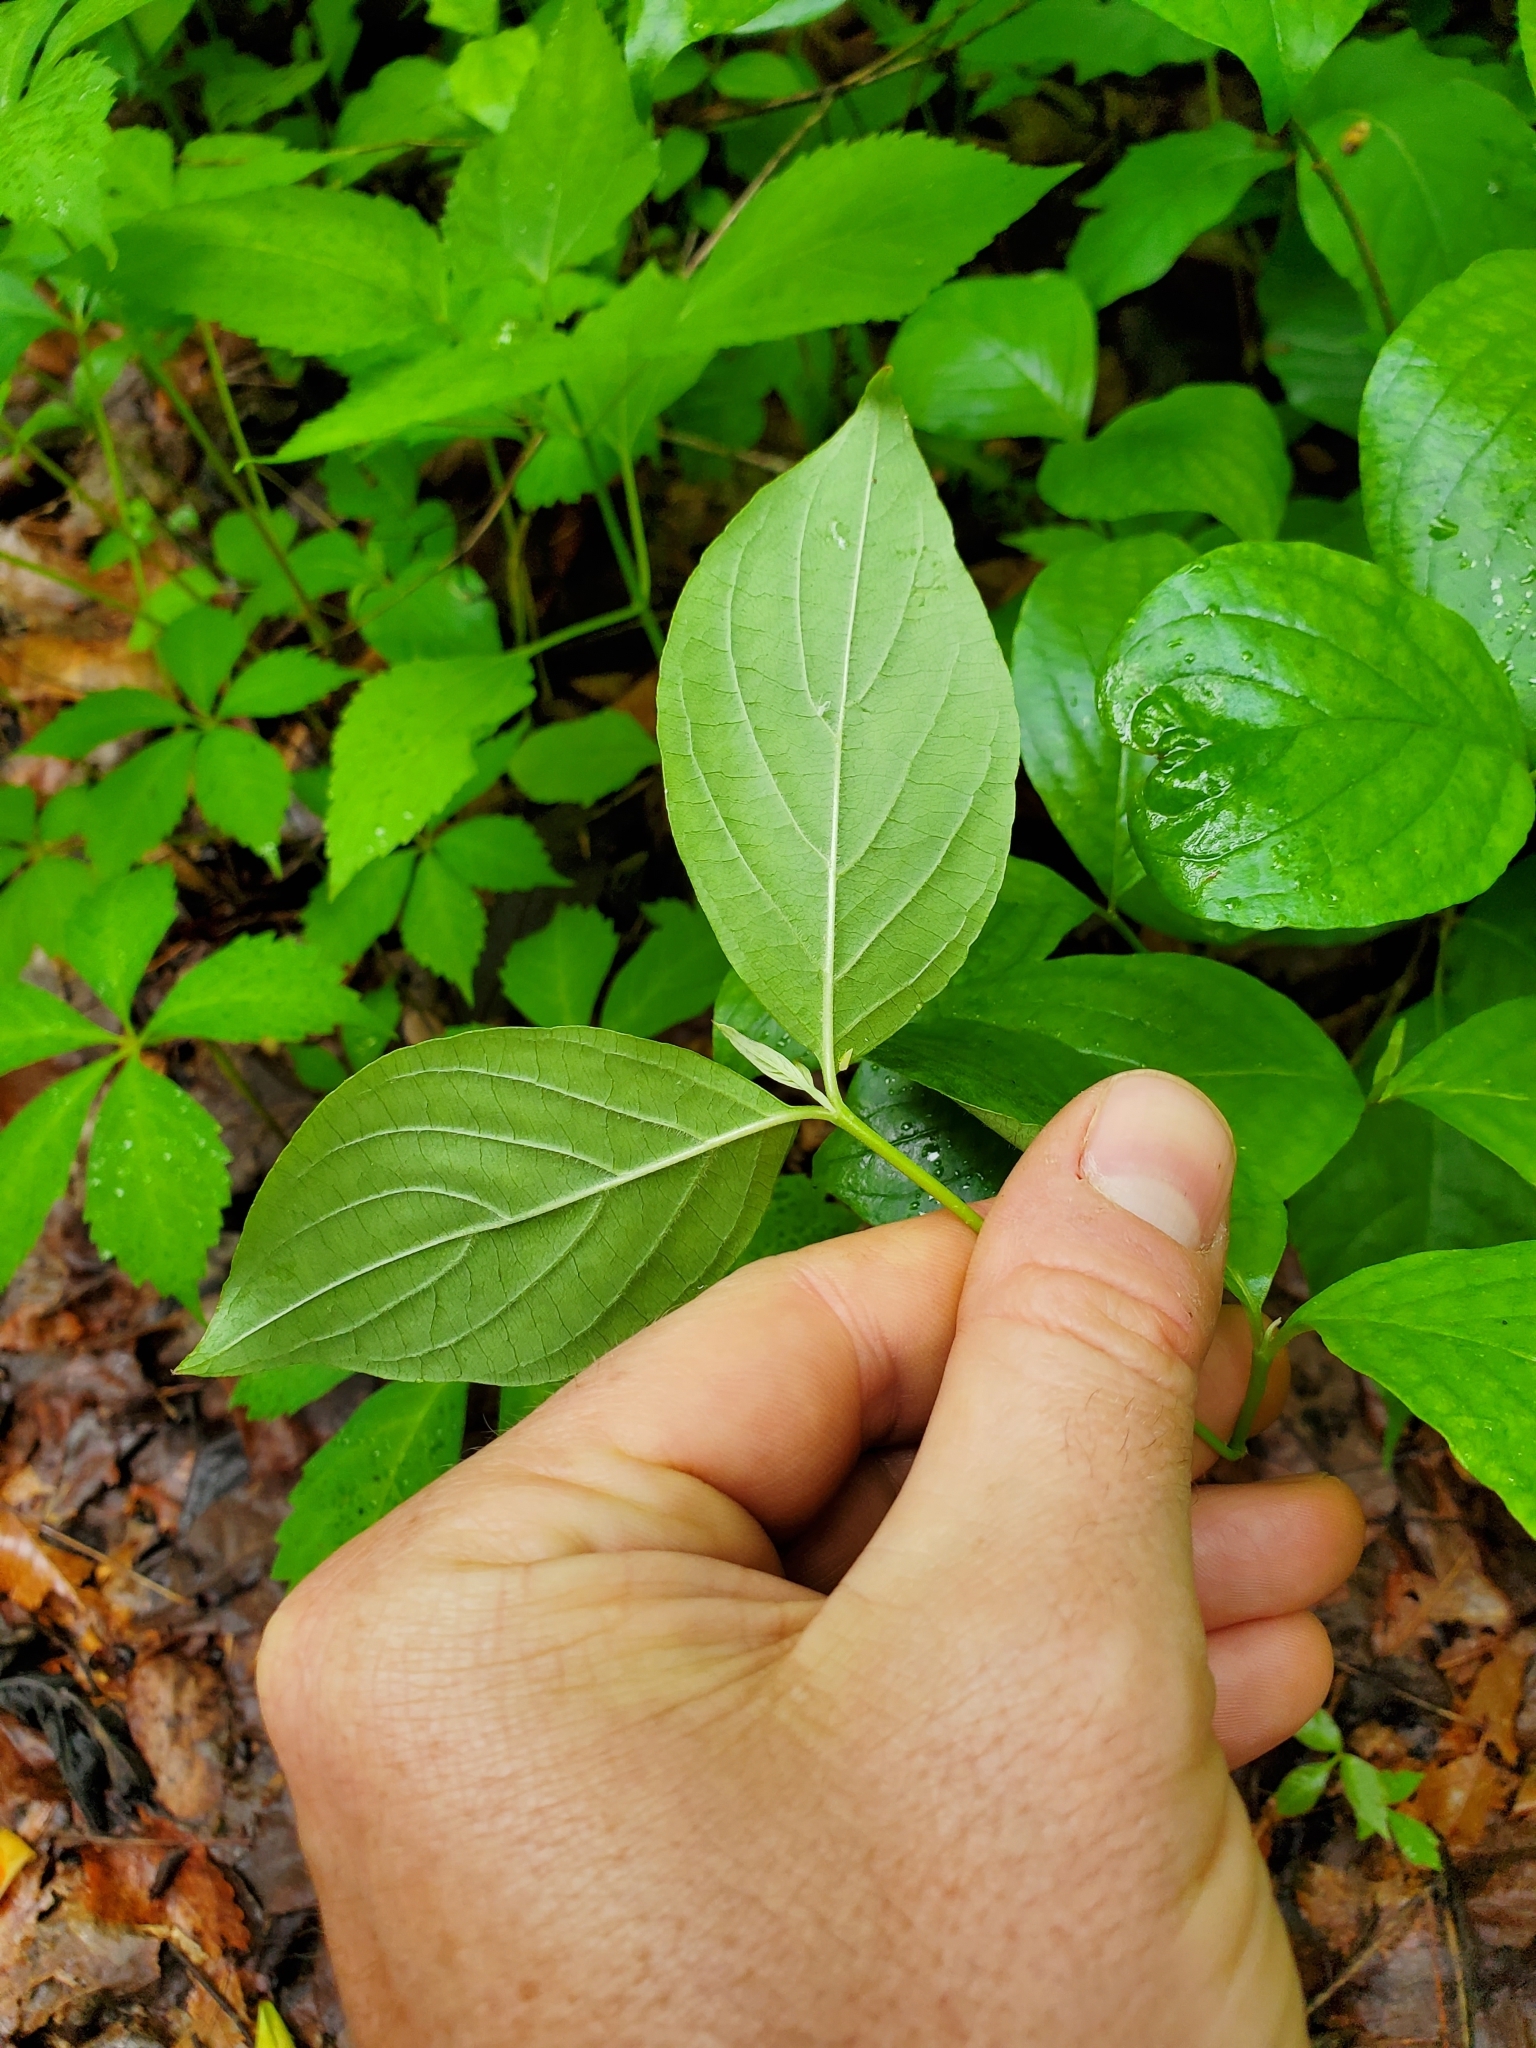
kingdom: Plantae
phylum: Tracheophyta
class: Magnoliopsida
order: Cornales
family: Cornaceae
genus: Cornus
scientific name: Cornus florida
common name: Flowering dogwood
